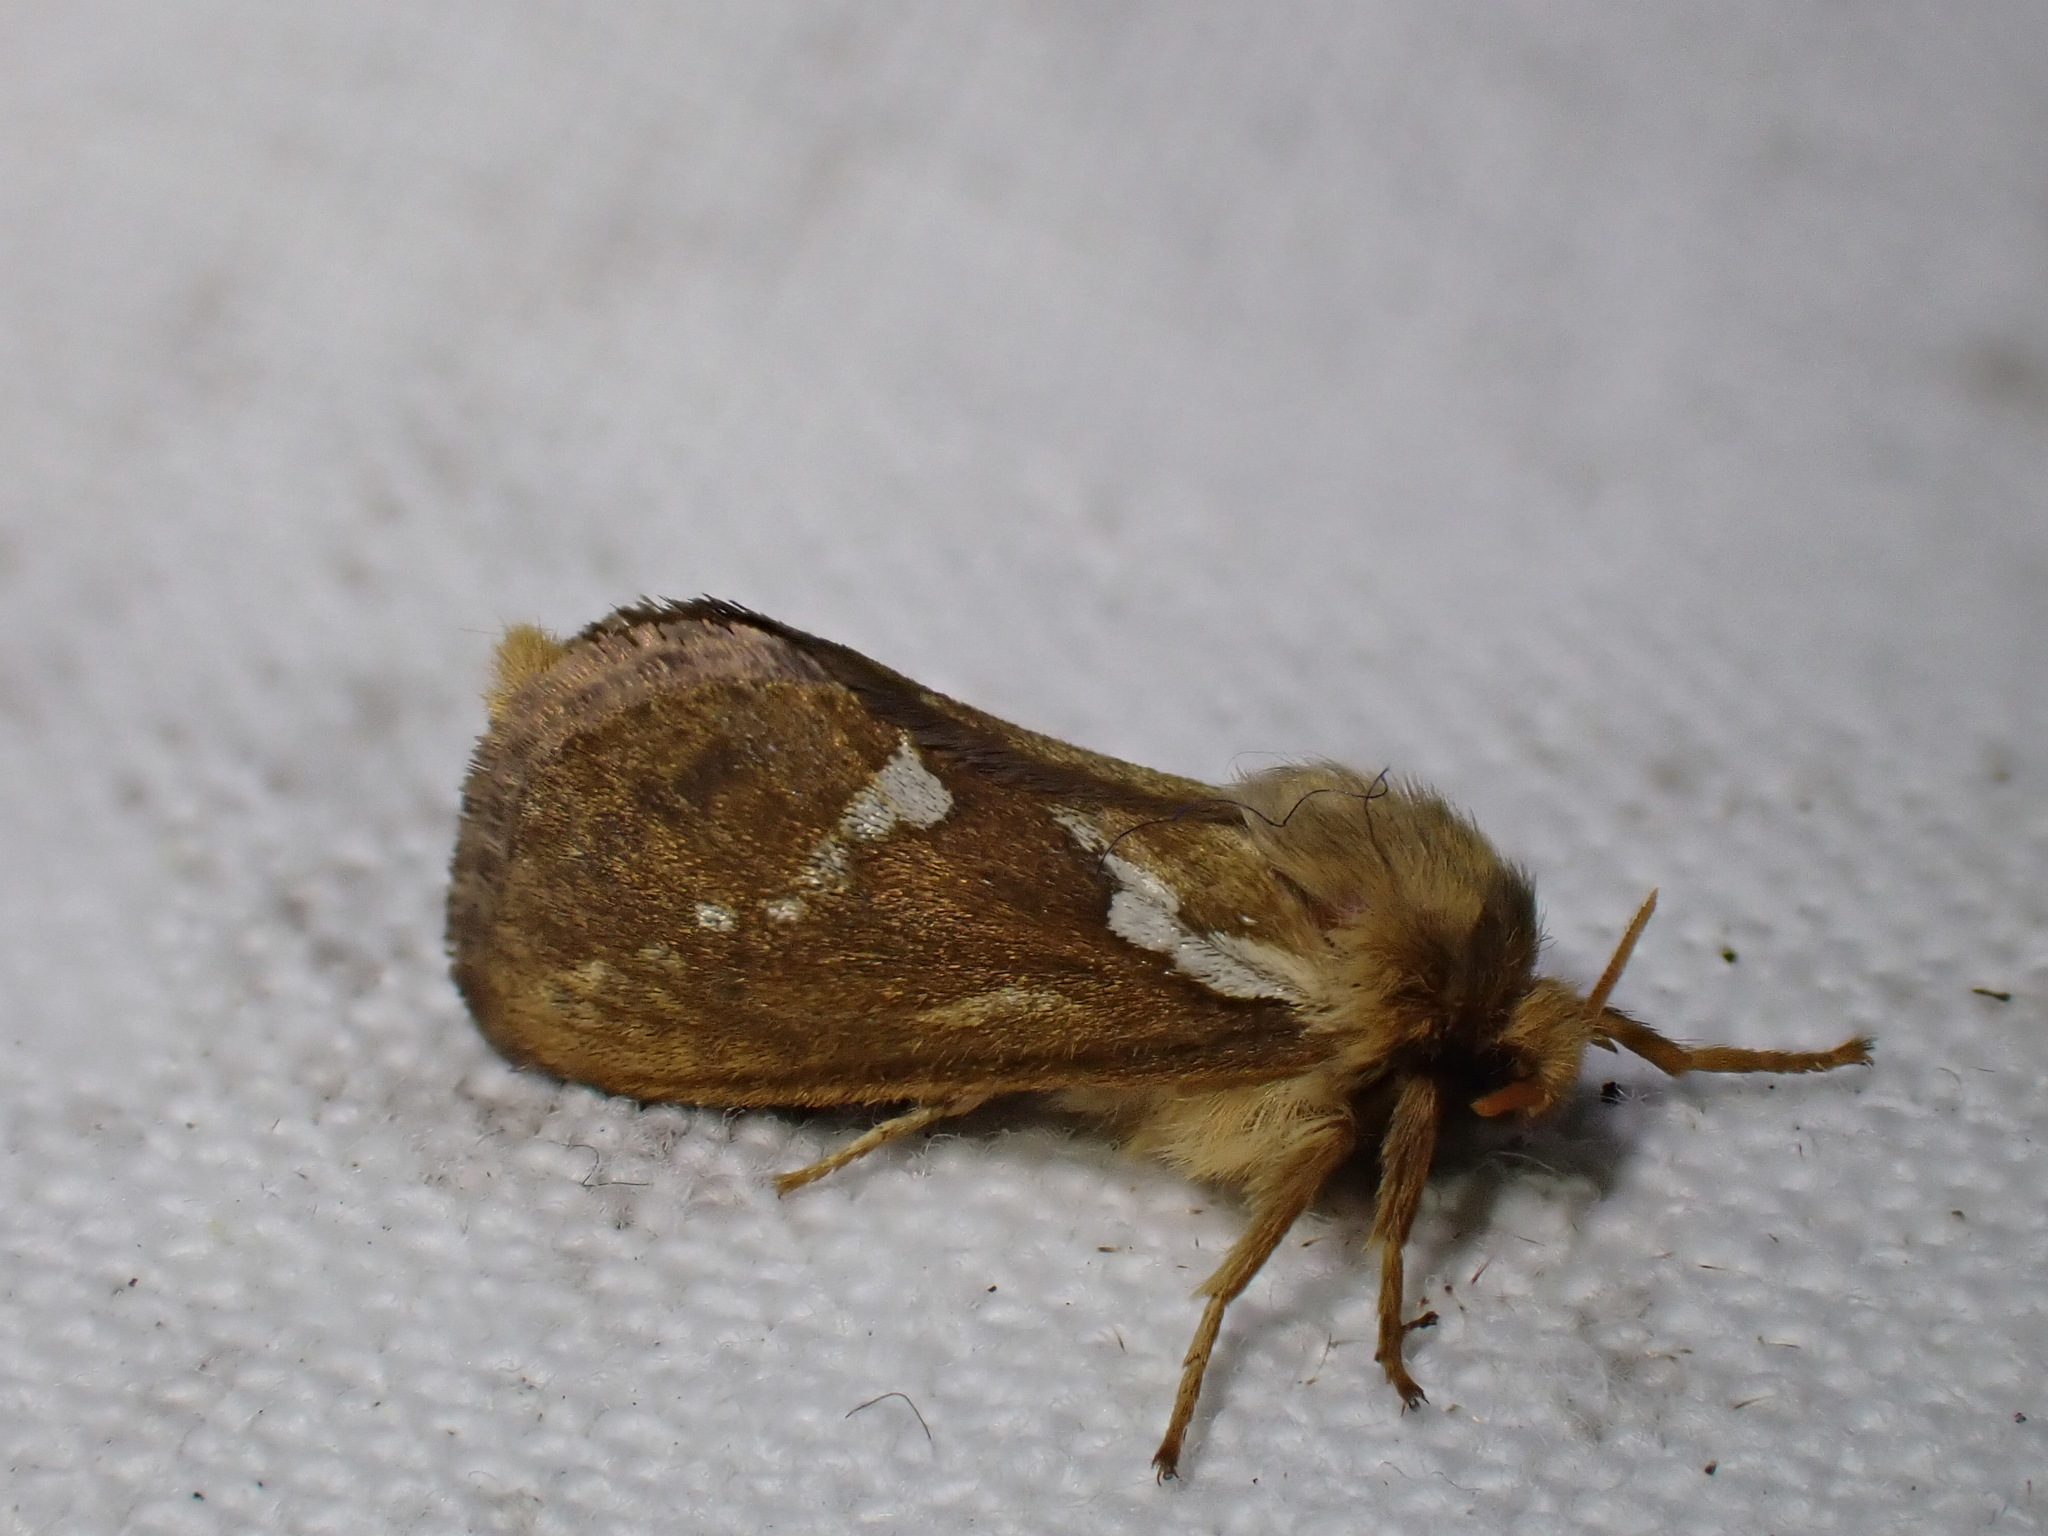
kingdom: Animalia
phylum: Arthropoda
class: Insecta
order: Lepidoptera
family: Hepialidae
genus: Korscheltellus
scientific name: Korscheltellus lupulina
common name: Common swift
